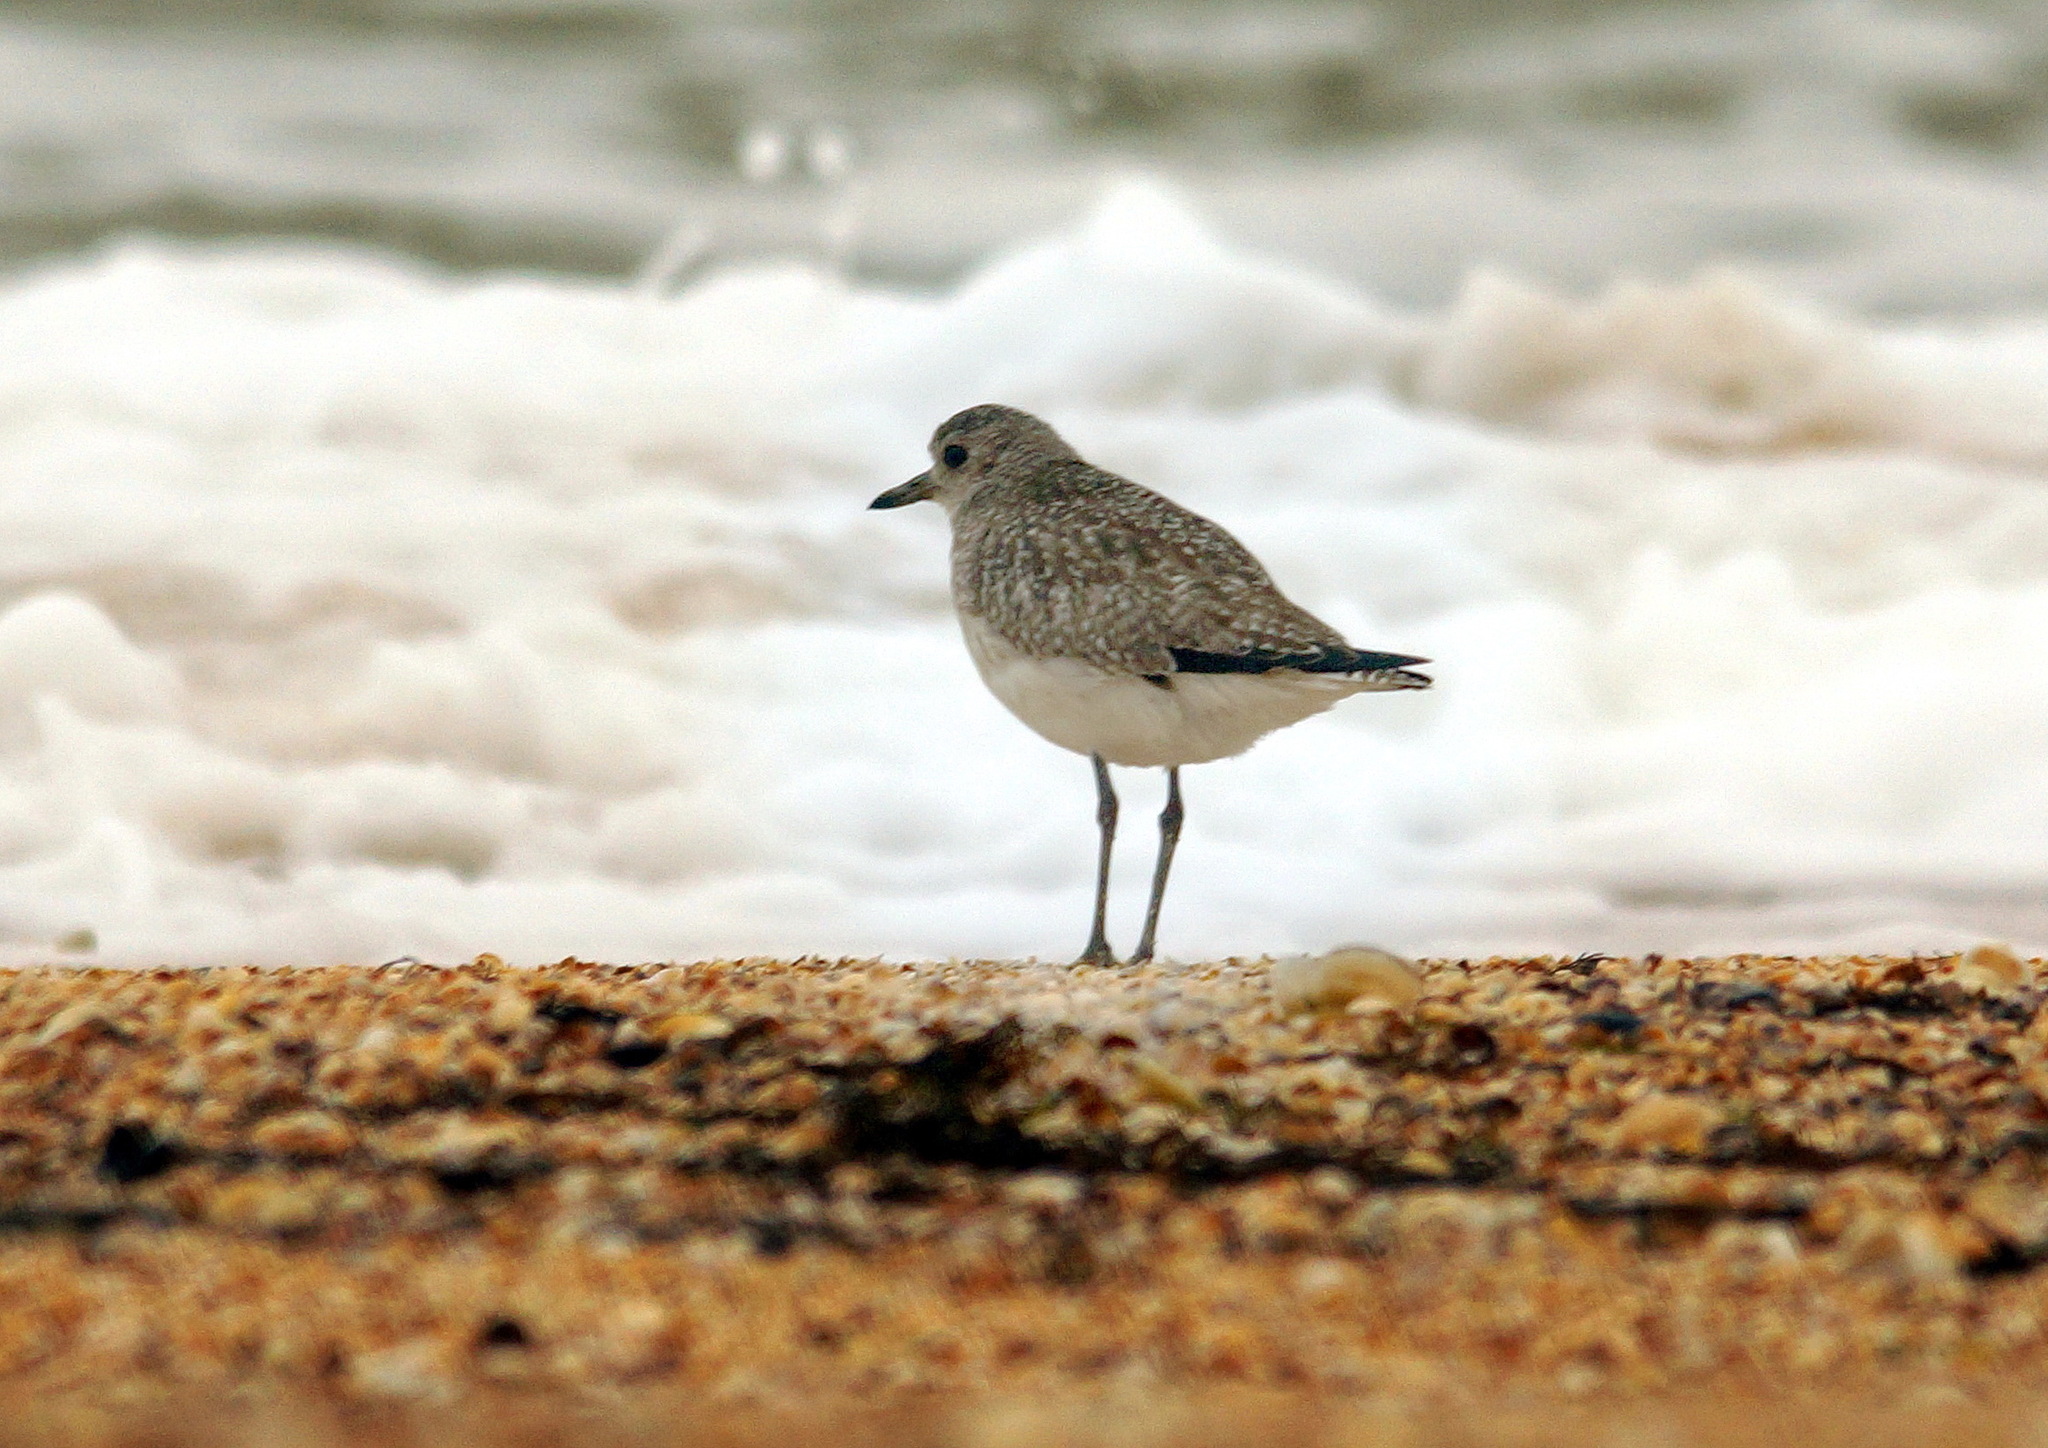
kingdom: Animalia
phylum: Chordata
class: Aves
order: Charadriiformes
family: Charadriidae
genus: Pluvialis
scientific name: Pluvialis squatarola
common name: Grey plover
